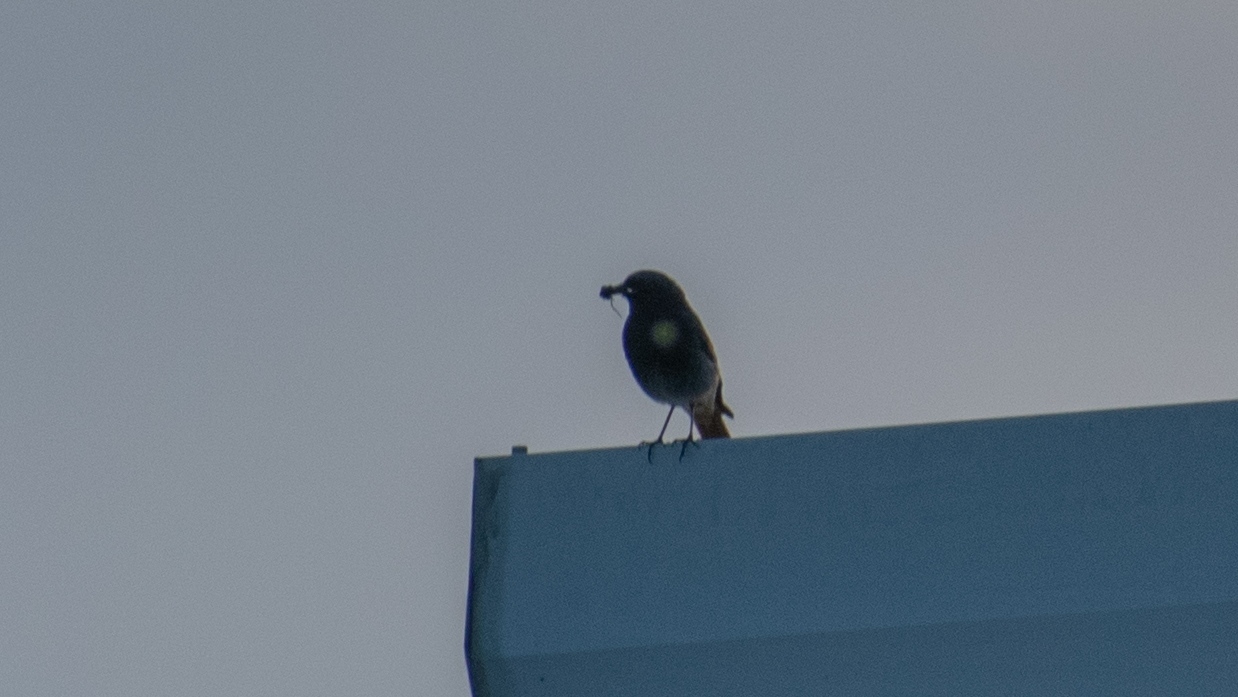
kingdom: Animalia
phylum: Chordata
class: Aves
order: Passeriformes
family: Muscicapidae
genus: Phoenicurus
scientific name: Phoenicurus ochruros
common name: Black redstart
